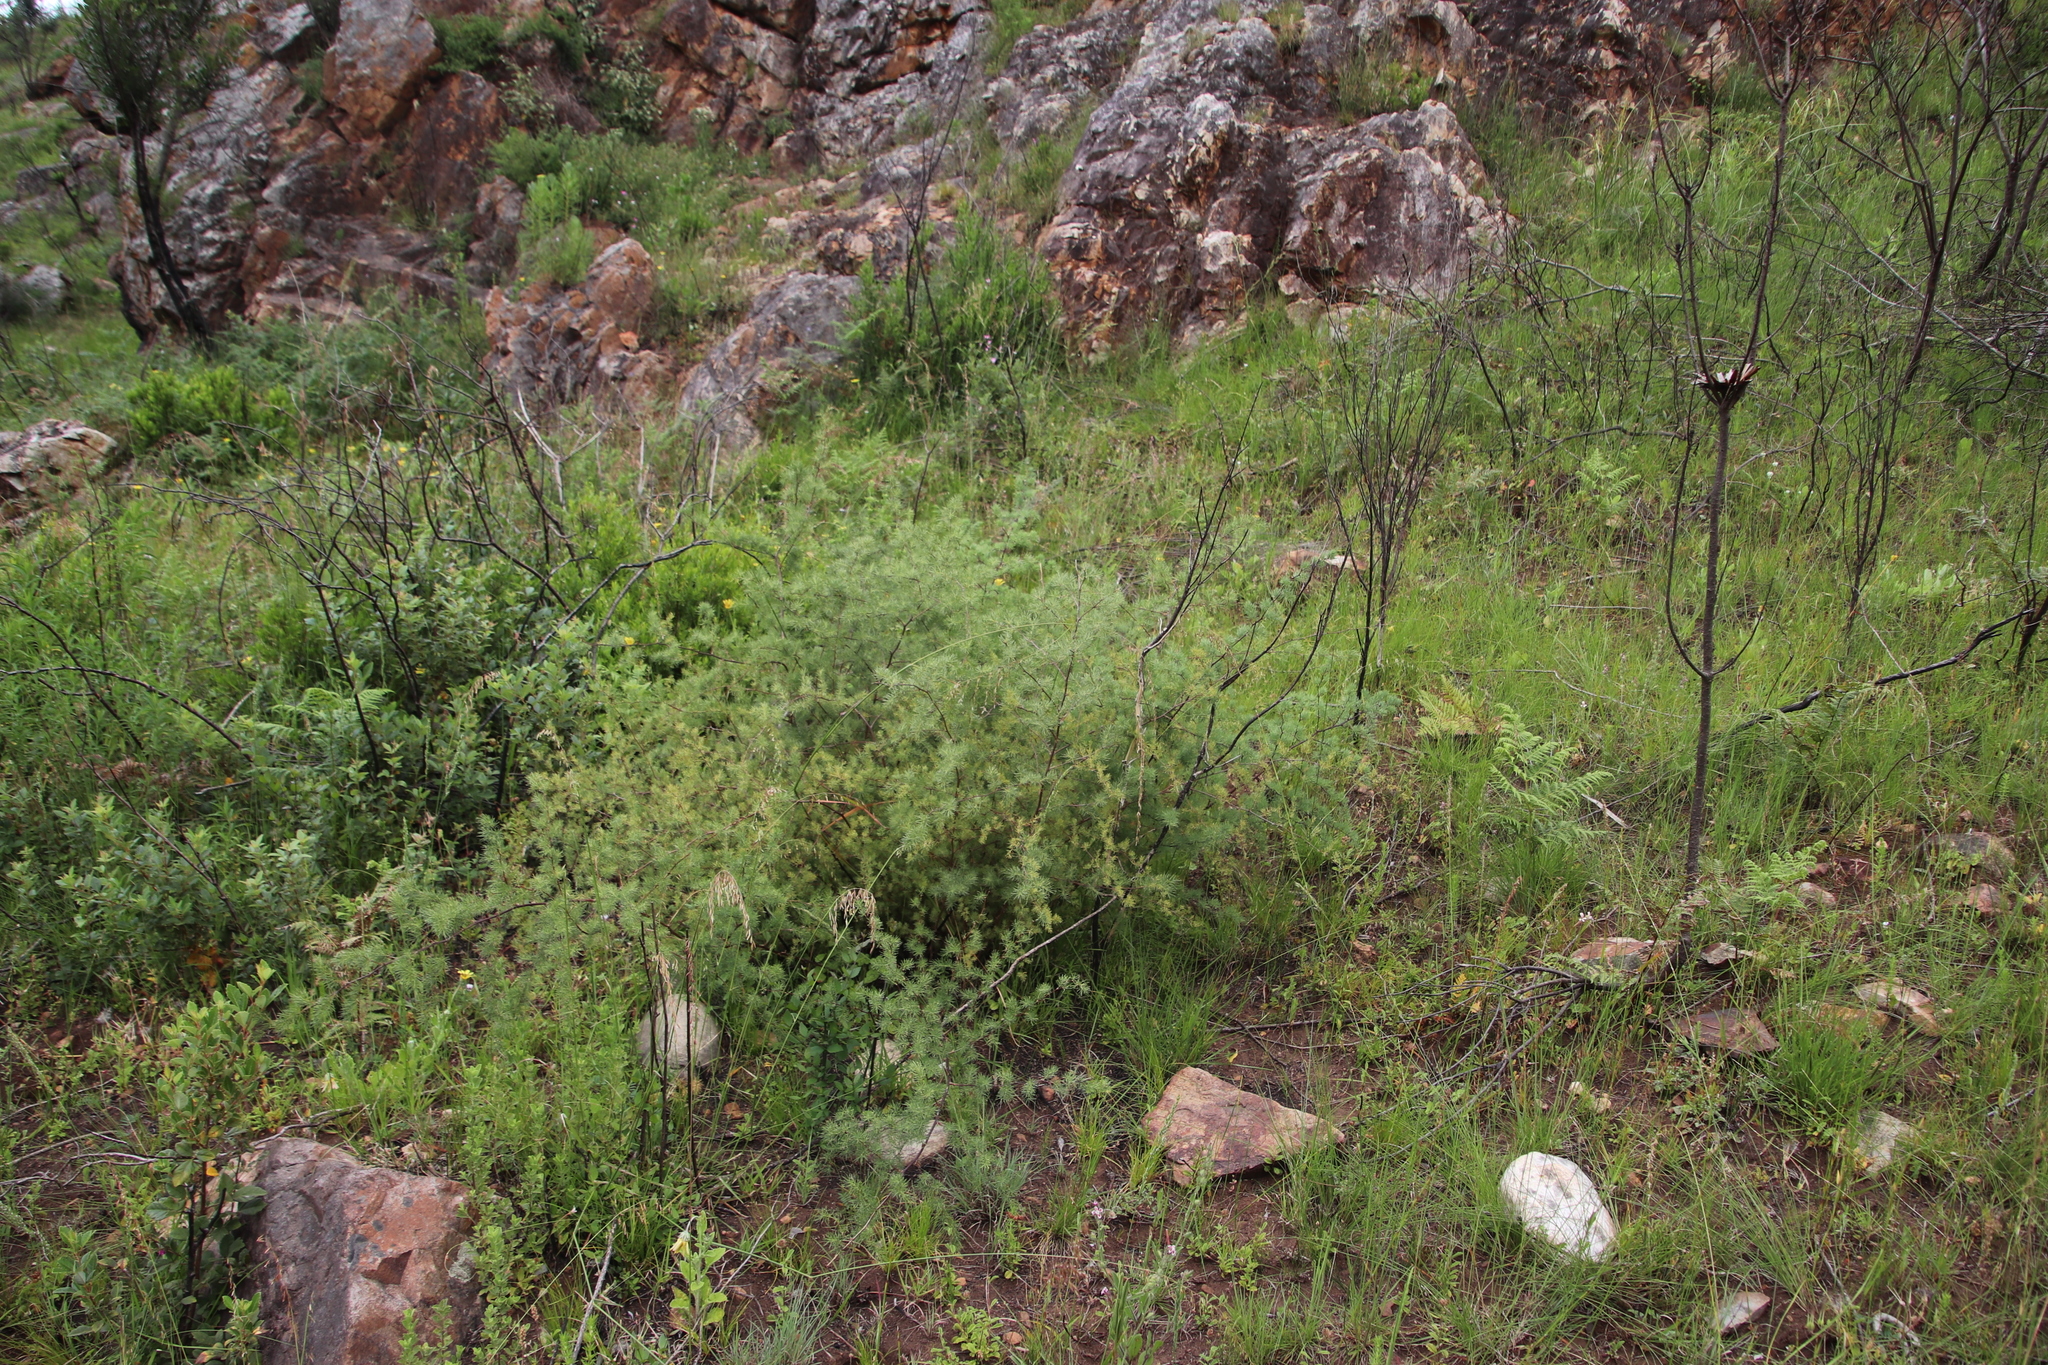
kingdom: Plantae
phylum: Tracheophyta
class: Liliopsida
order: Asparagales
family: Asparagaceae
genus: Asparagus
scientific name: Asparagus rubicundus
